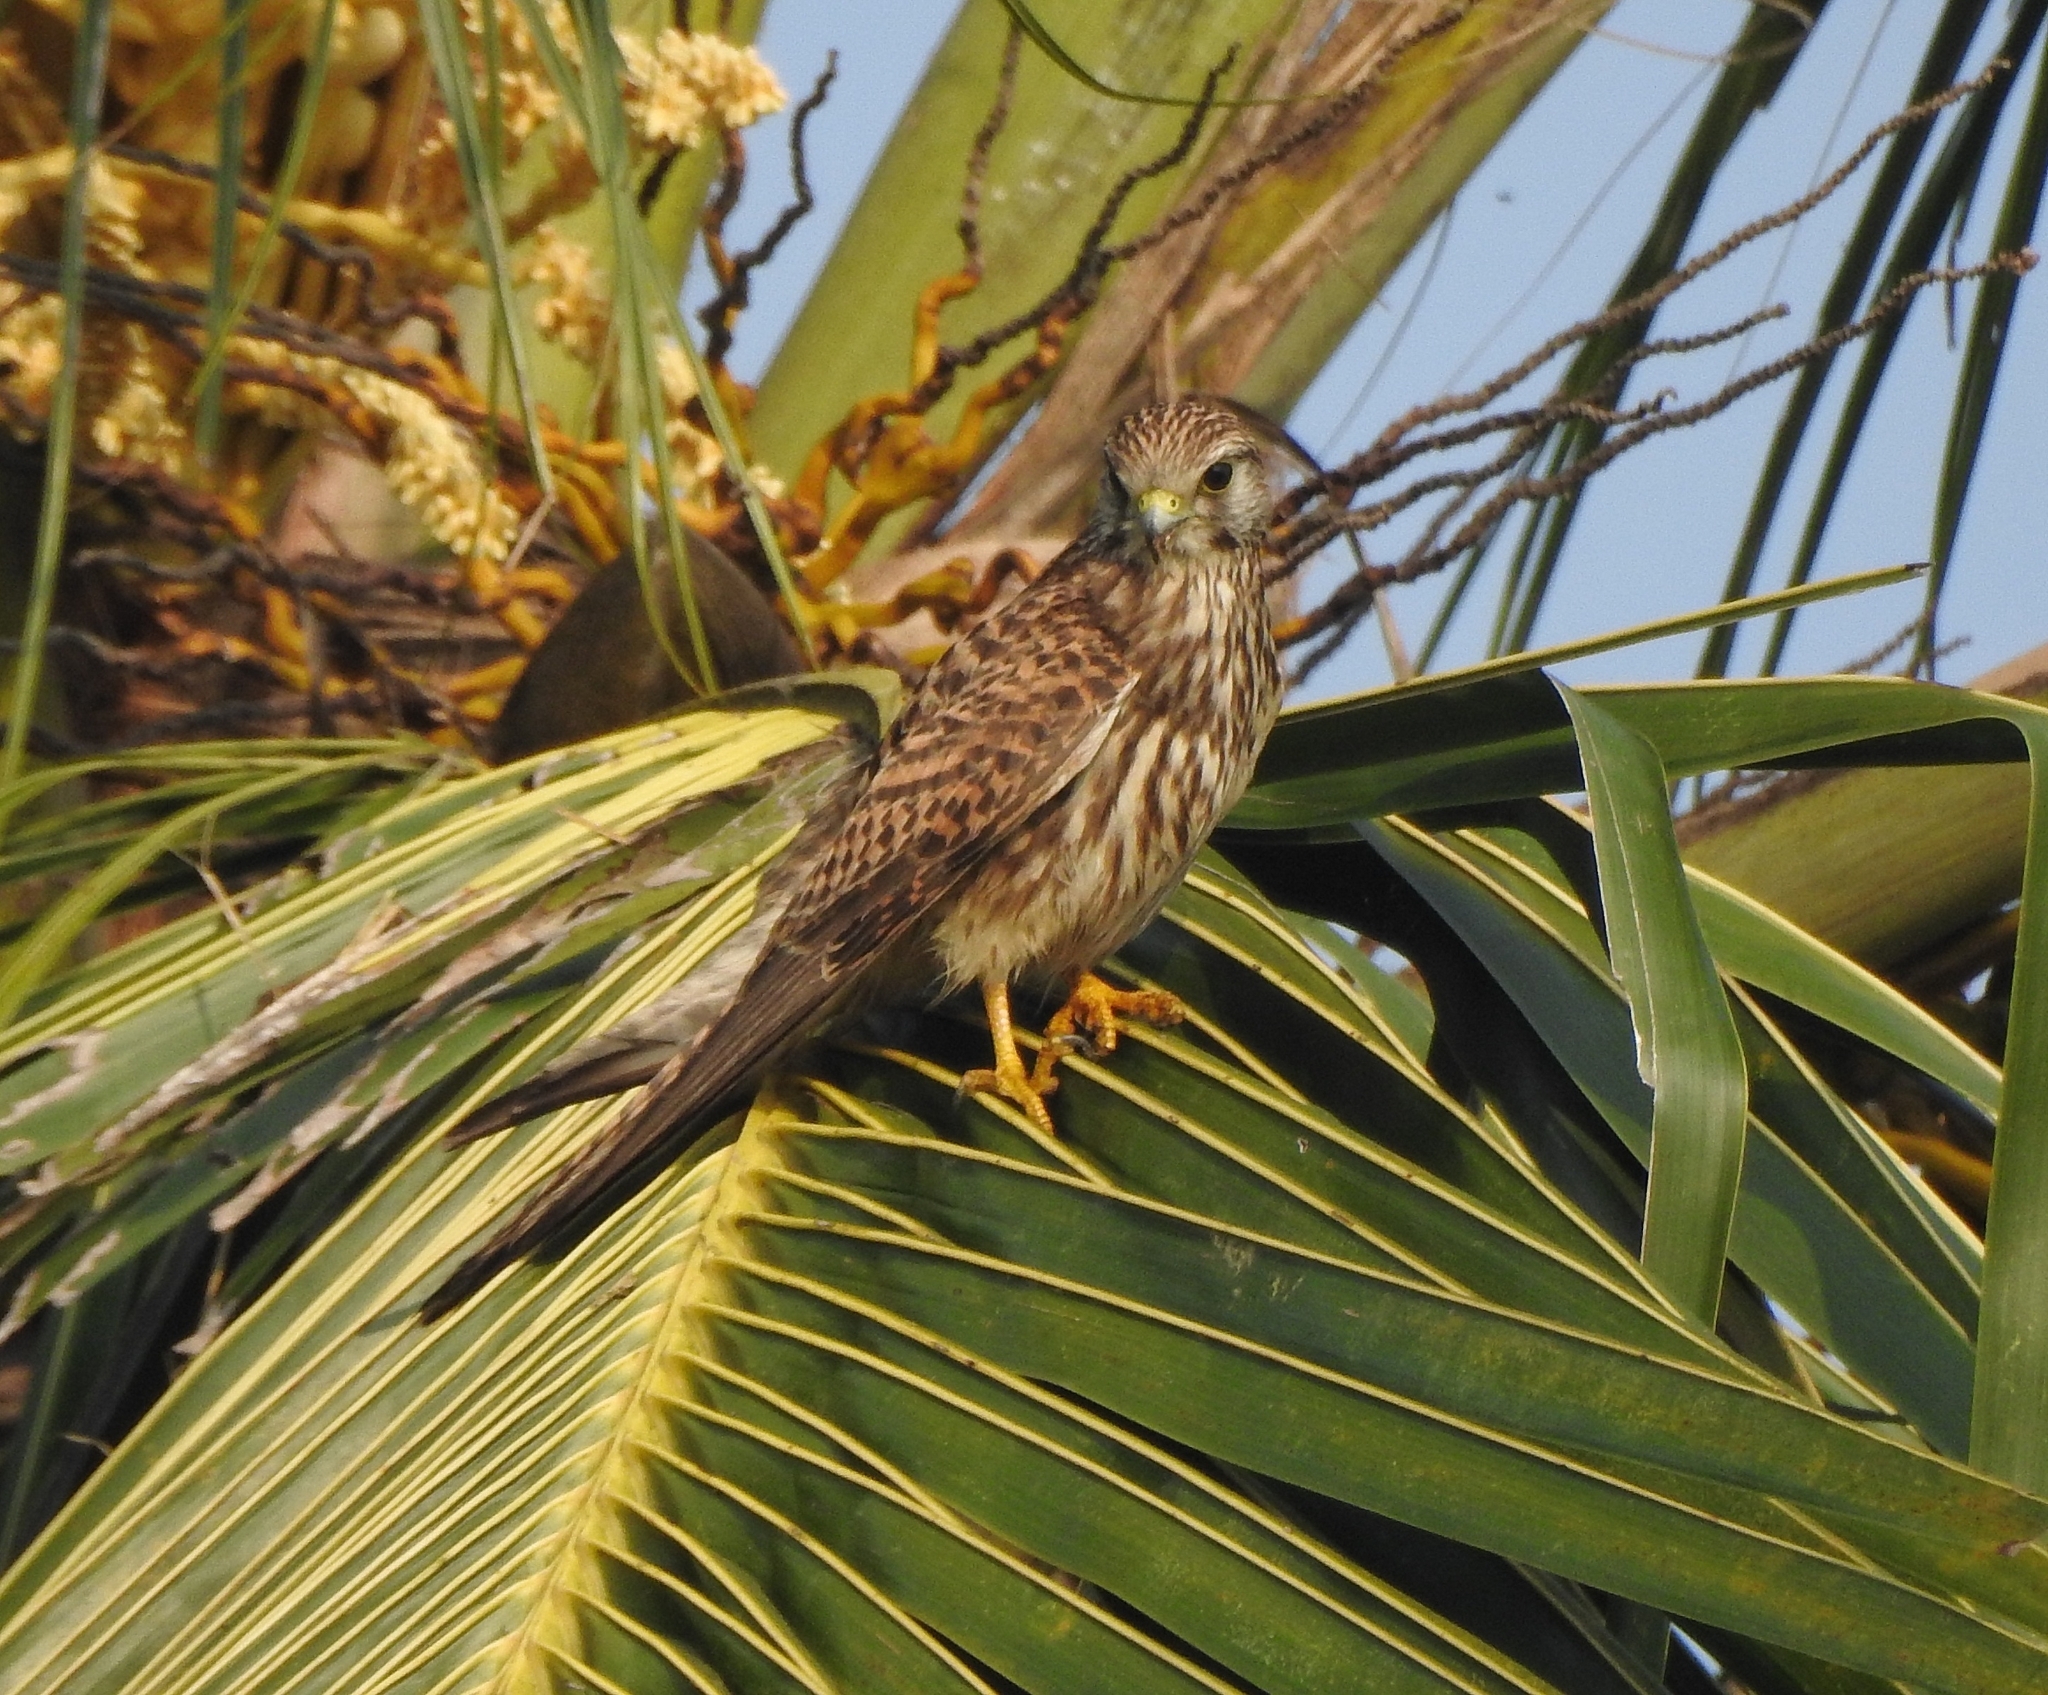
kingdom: Animalia
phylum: Chordata
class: Aves
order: Falconiformes
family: Falconidae
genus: Falco
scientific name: Falco tinnunculus
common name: Common kestrel
